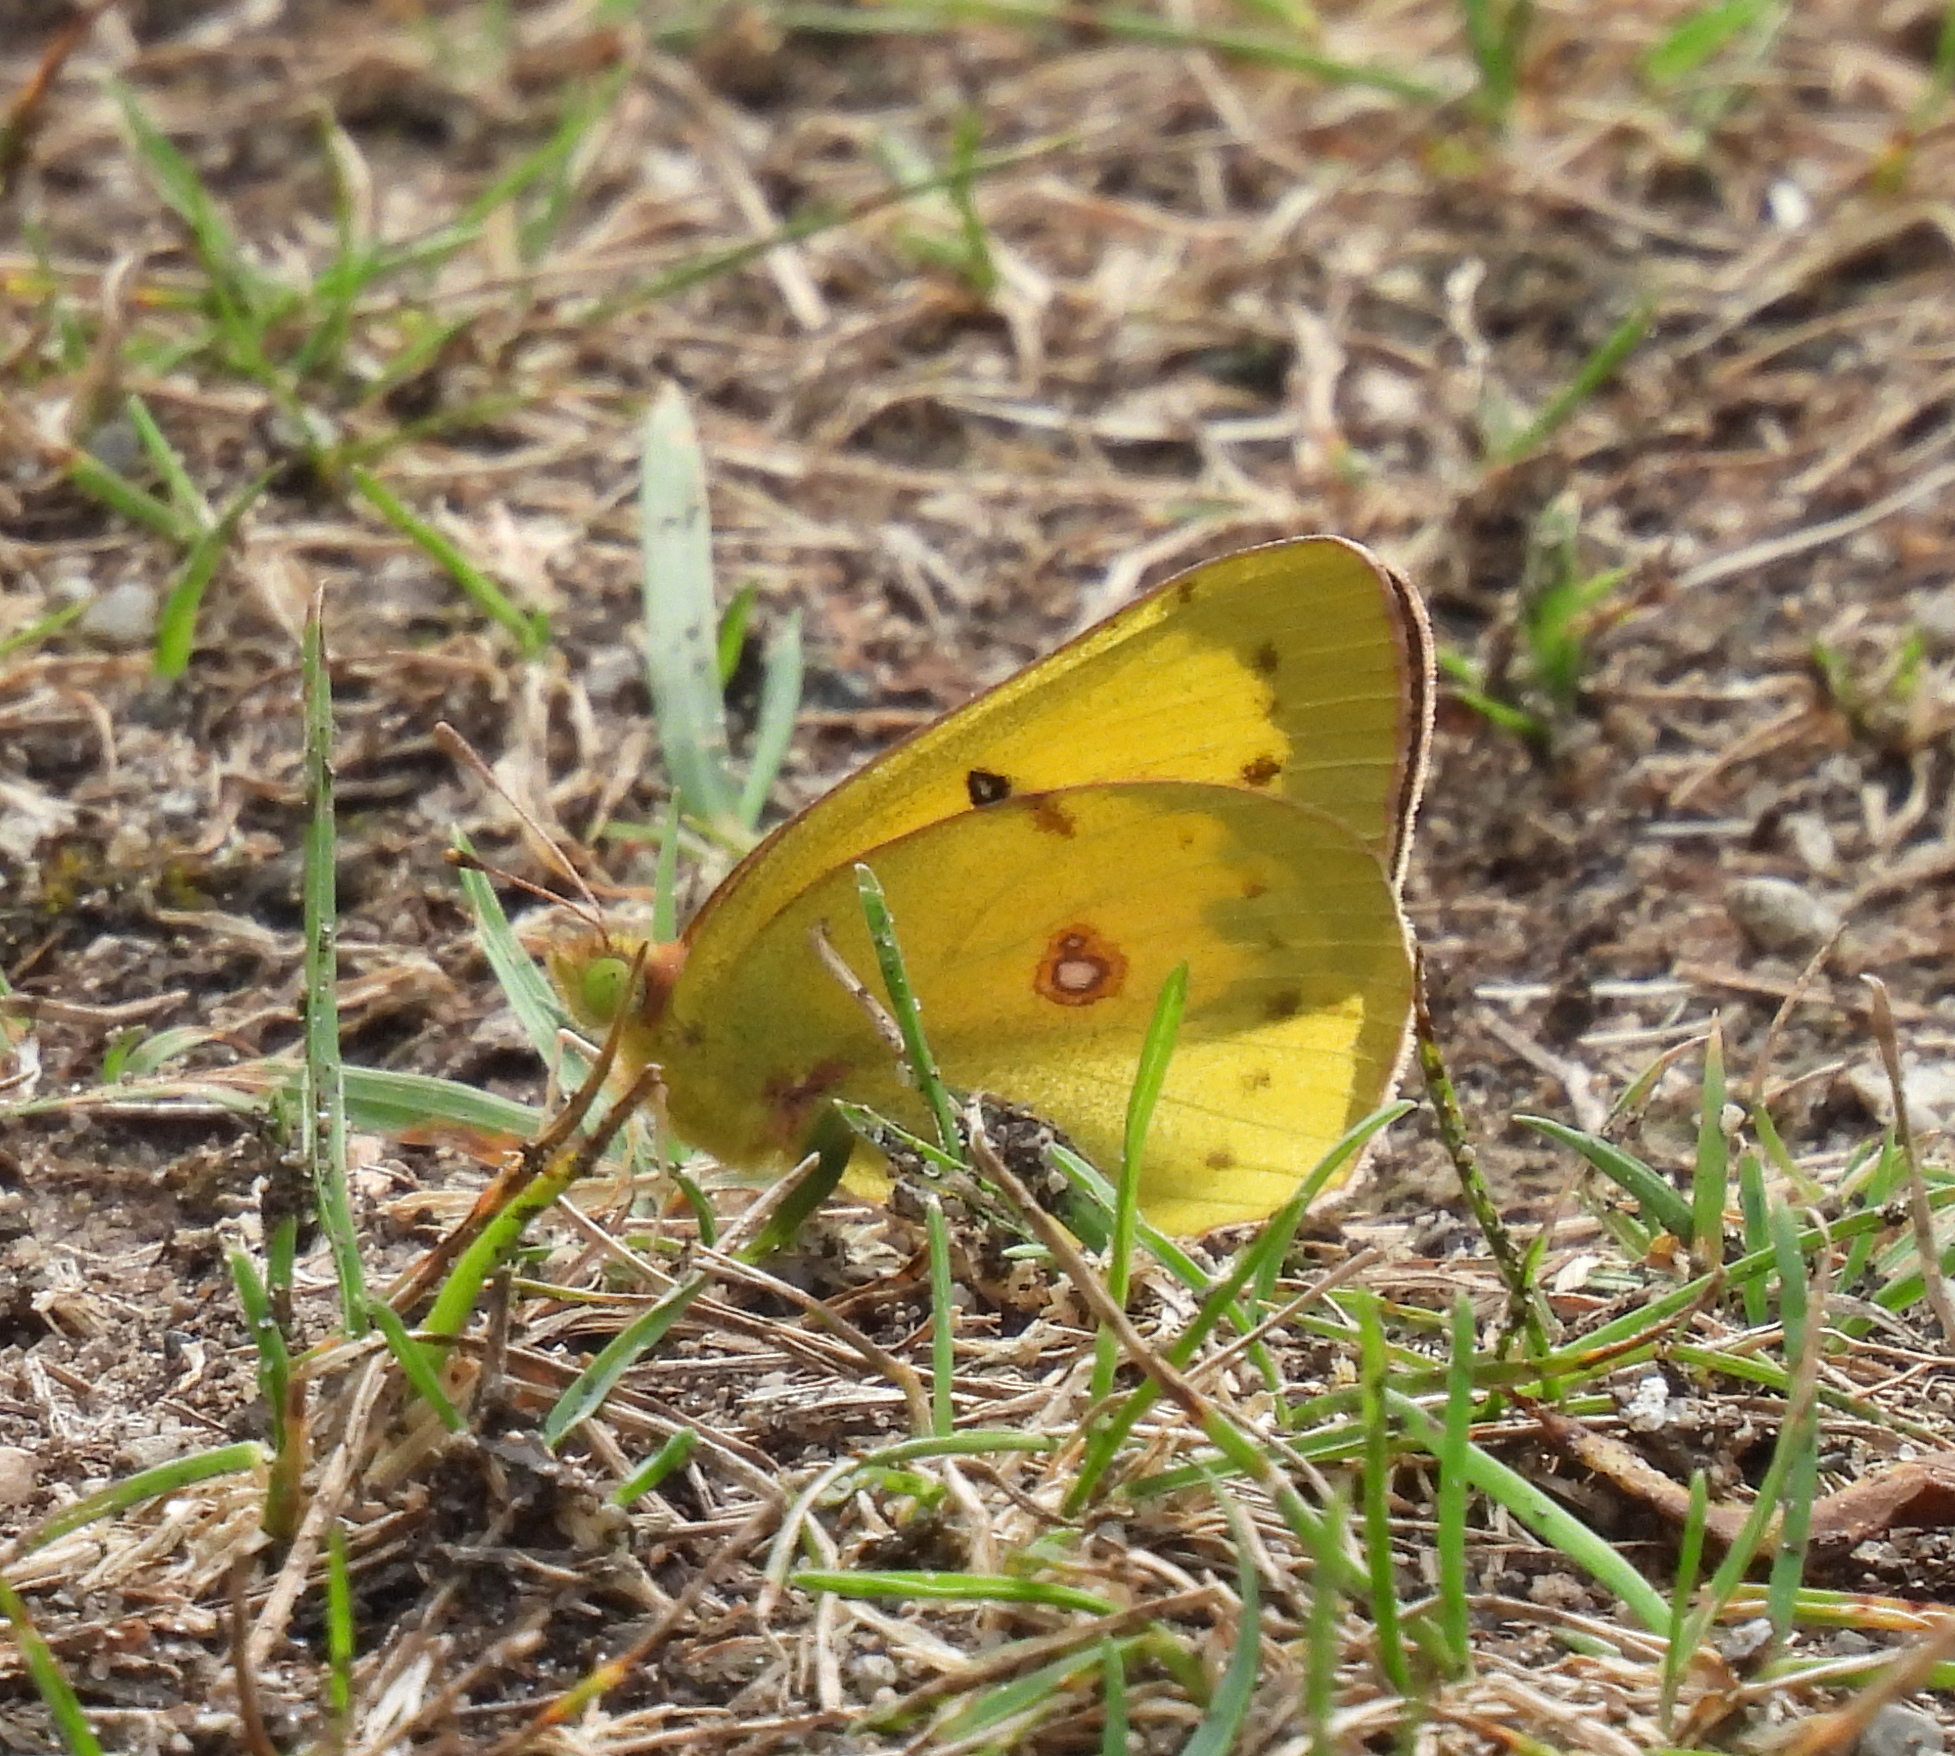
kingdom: Animalia
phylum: Arthropoda
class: Insecta
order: Lepidoptera
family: Pieridae
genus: Colias
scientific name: Colias philodice
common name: Clouded sulphur
